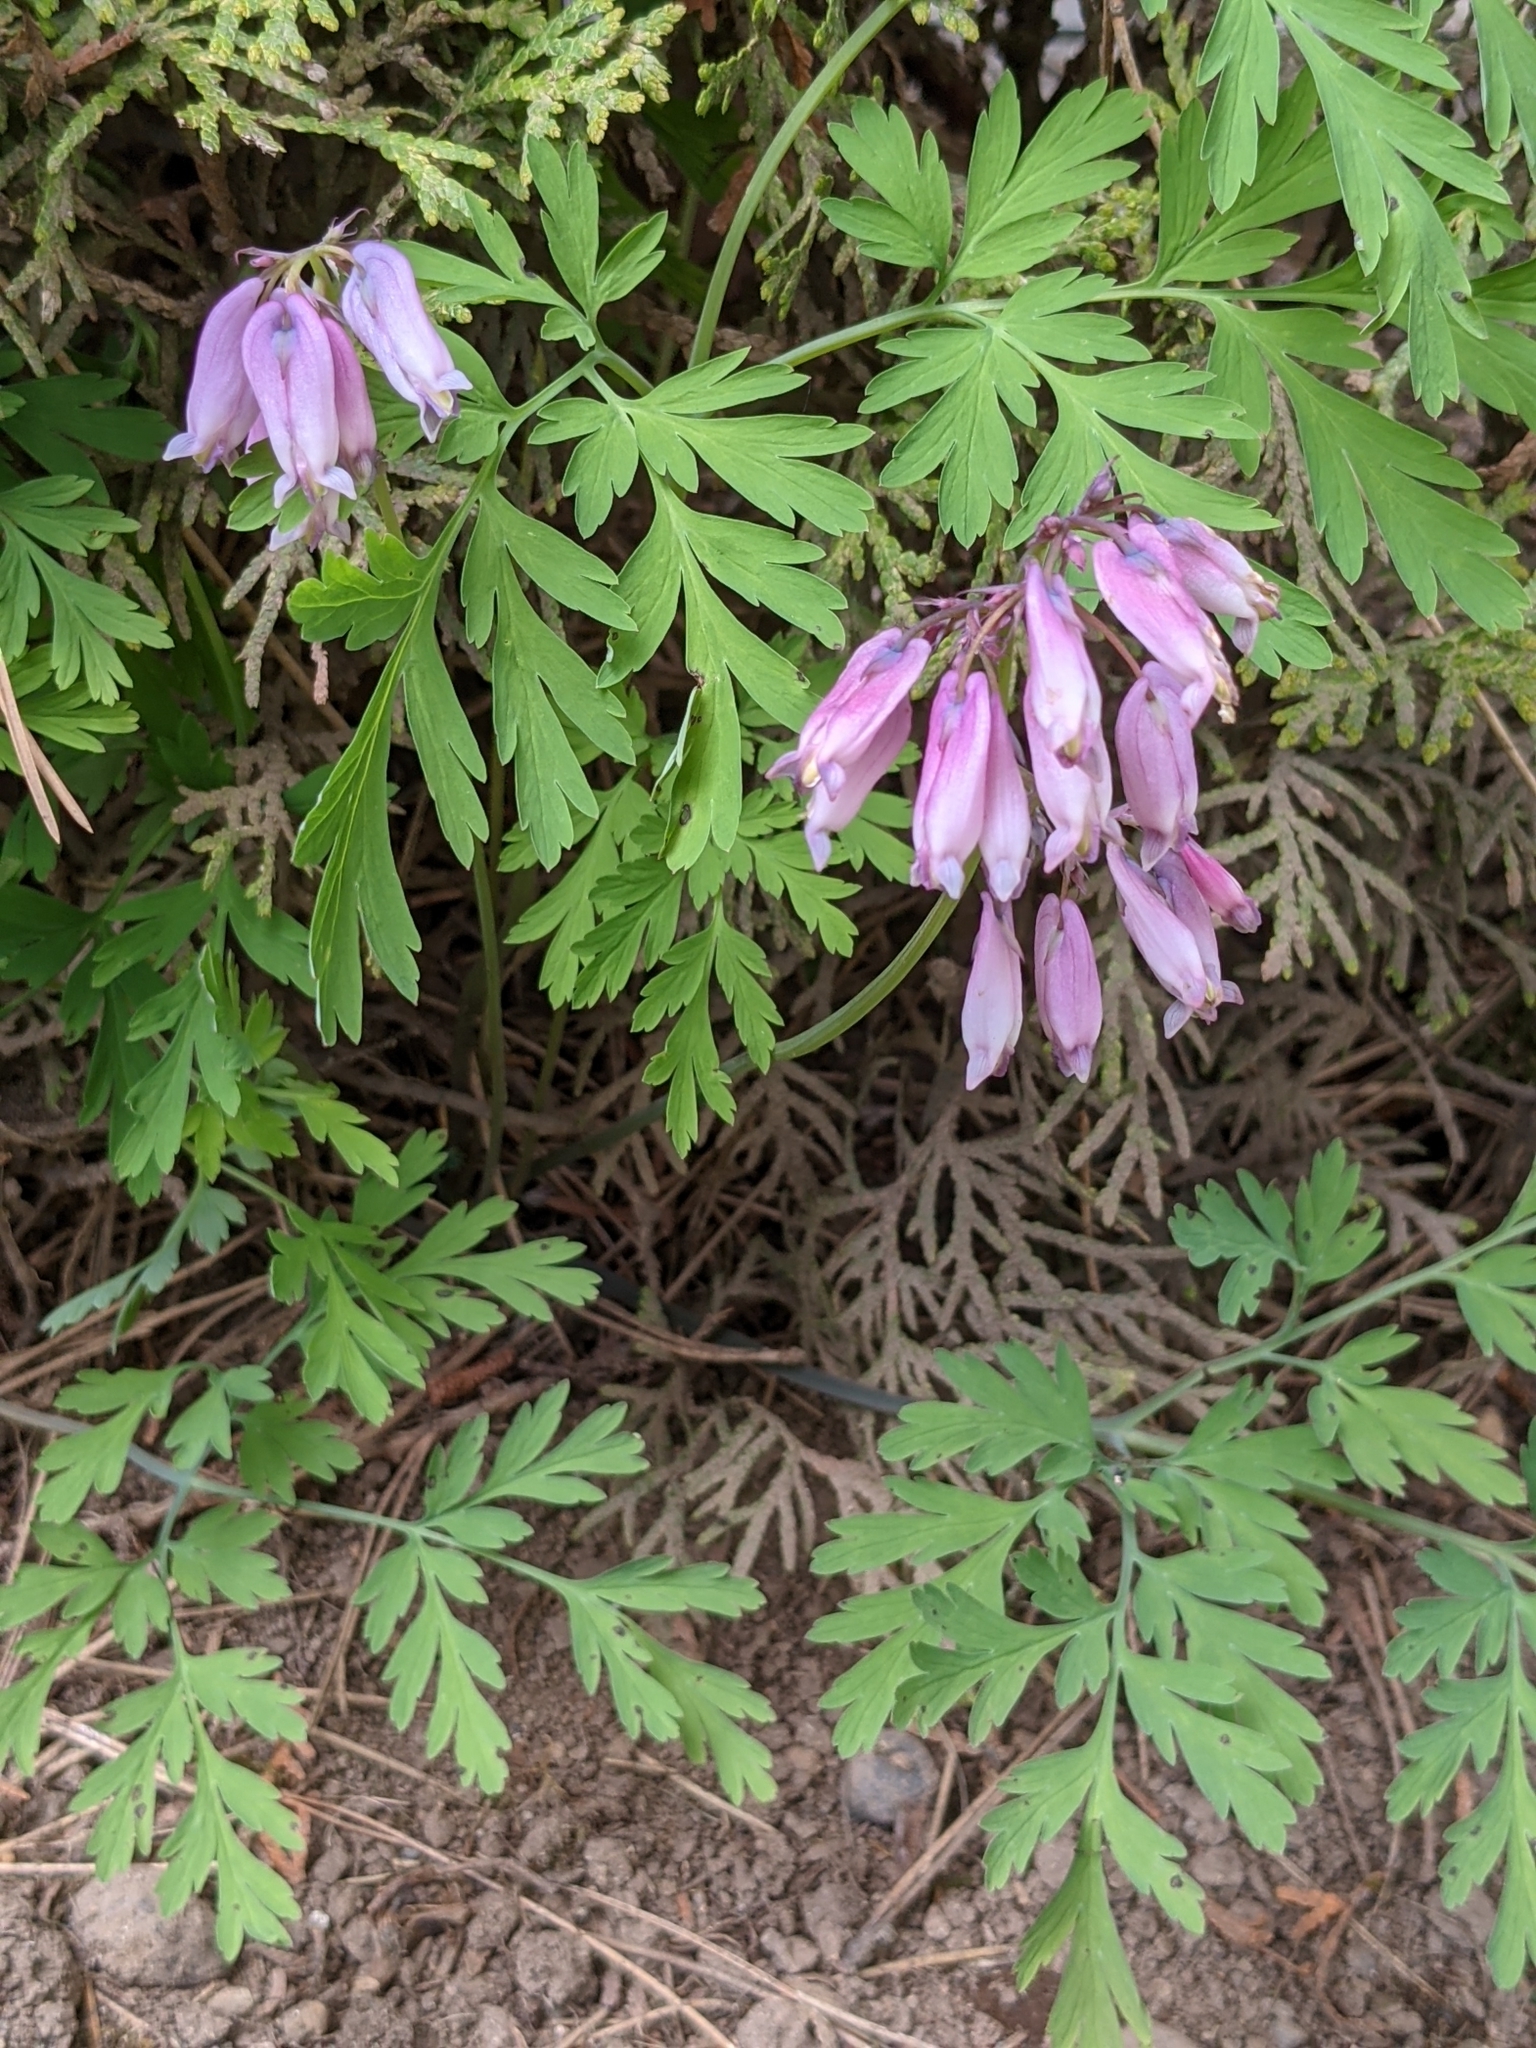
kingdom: Plantae
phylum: Tracheophyta
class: Magnoliopsida
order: Ranunculales
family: Papaveraceae
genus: Dicentra
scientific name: Dicentra formosa
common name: Bleeding-heart
